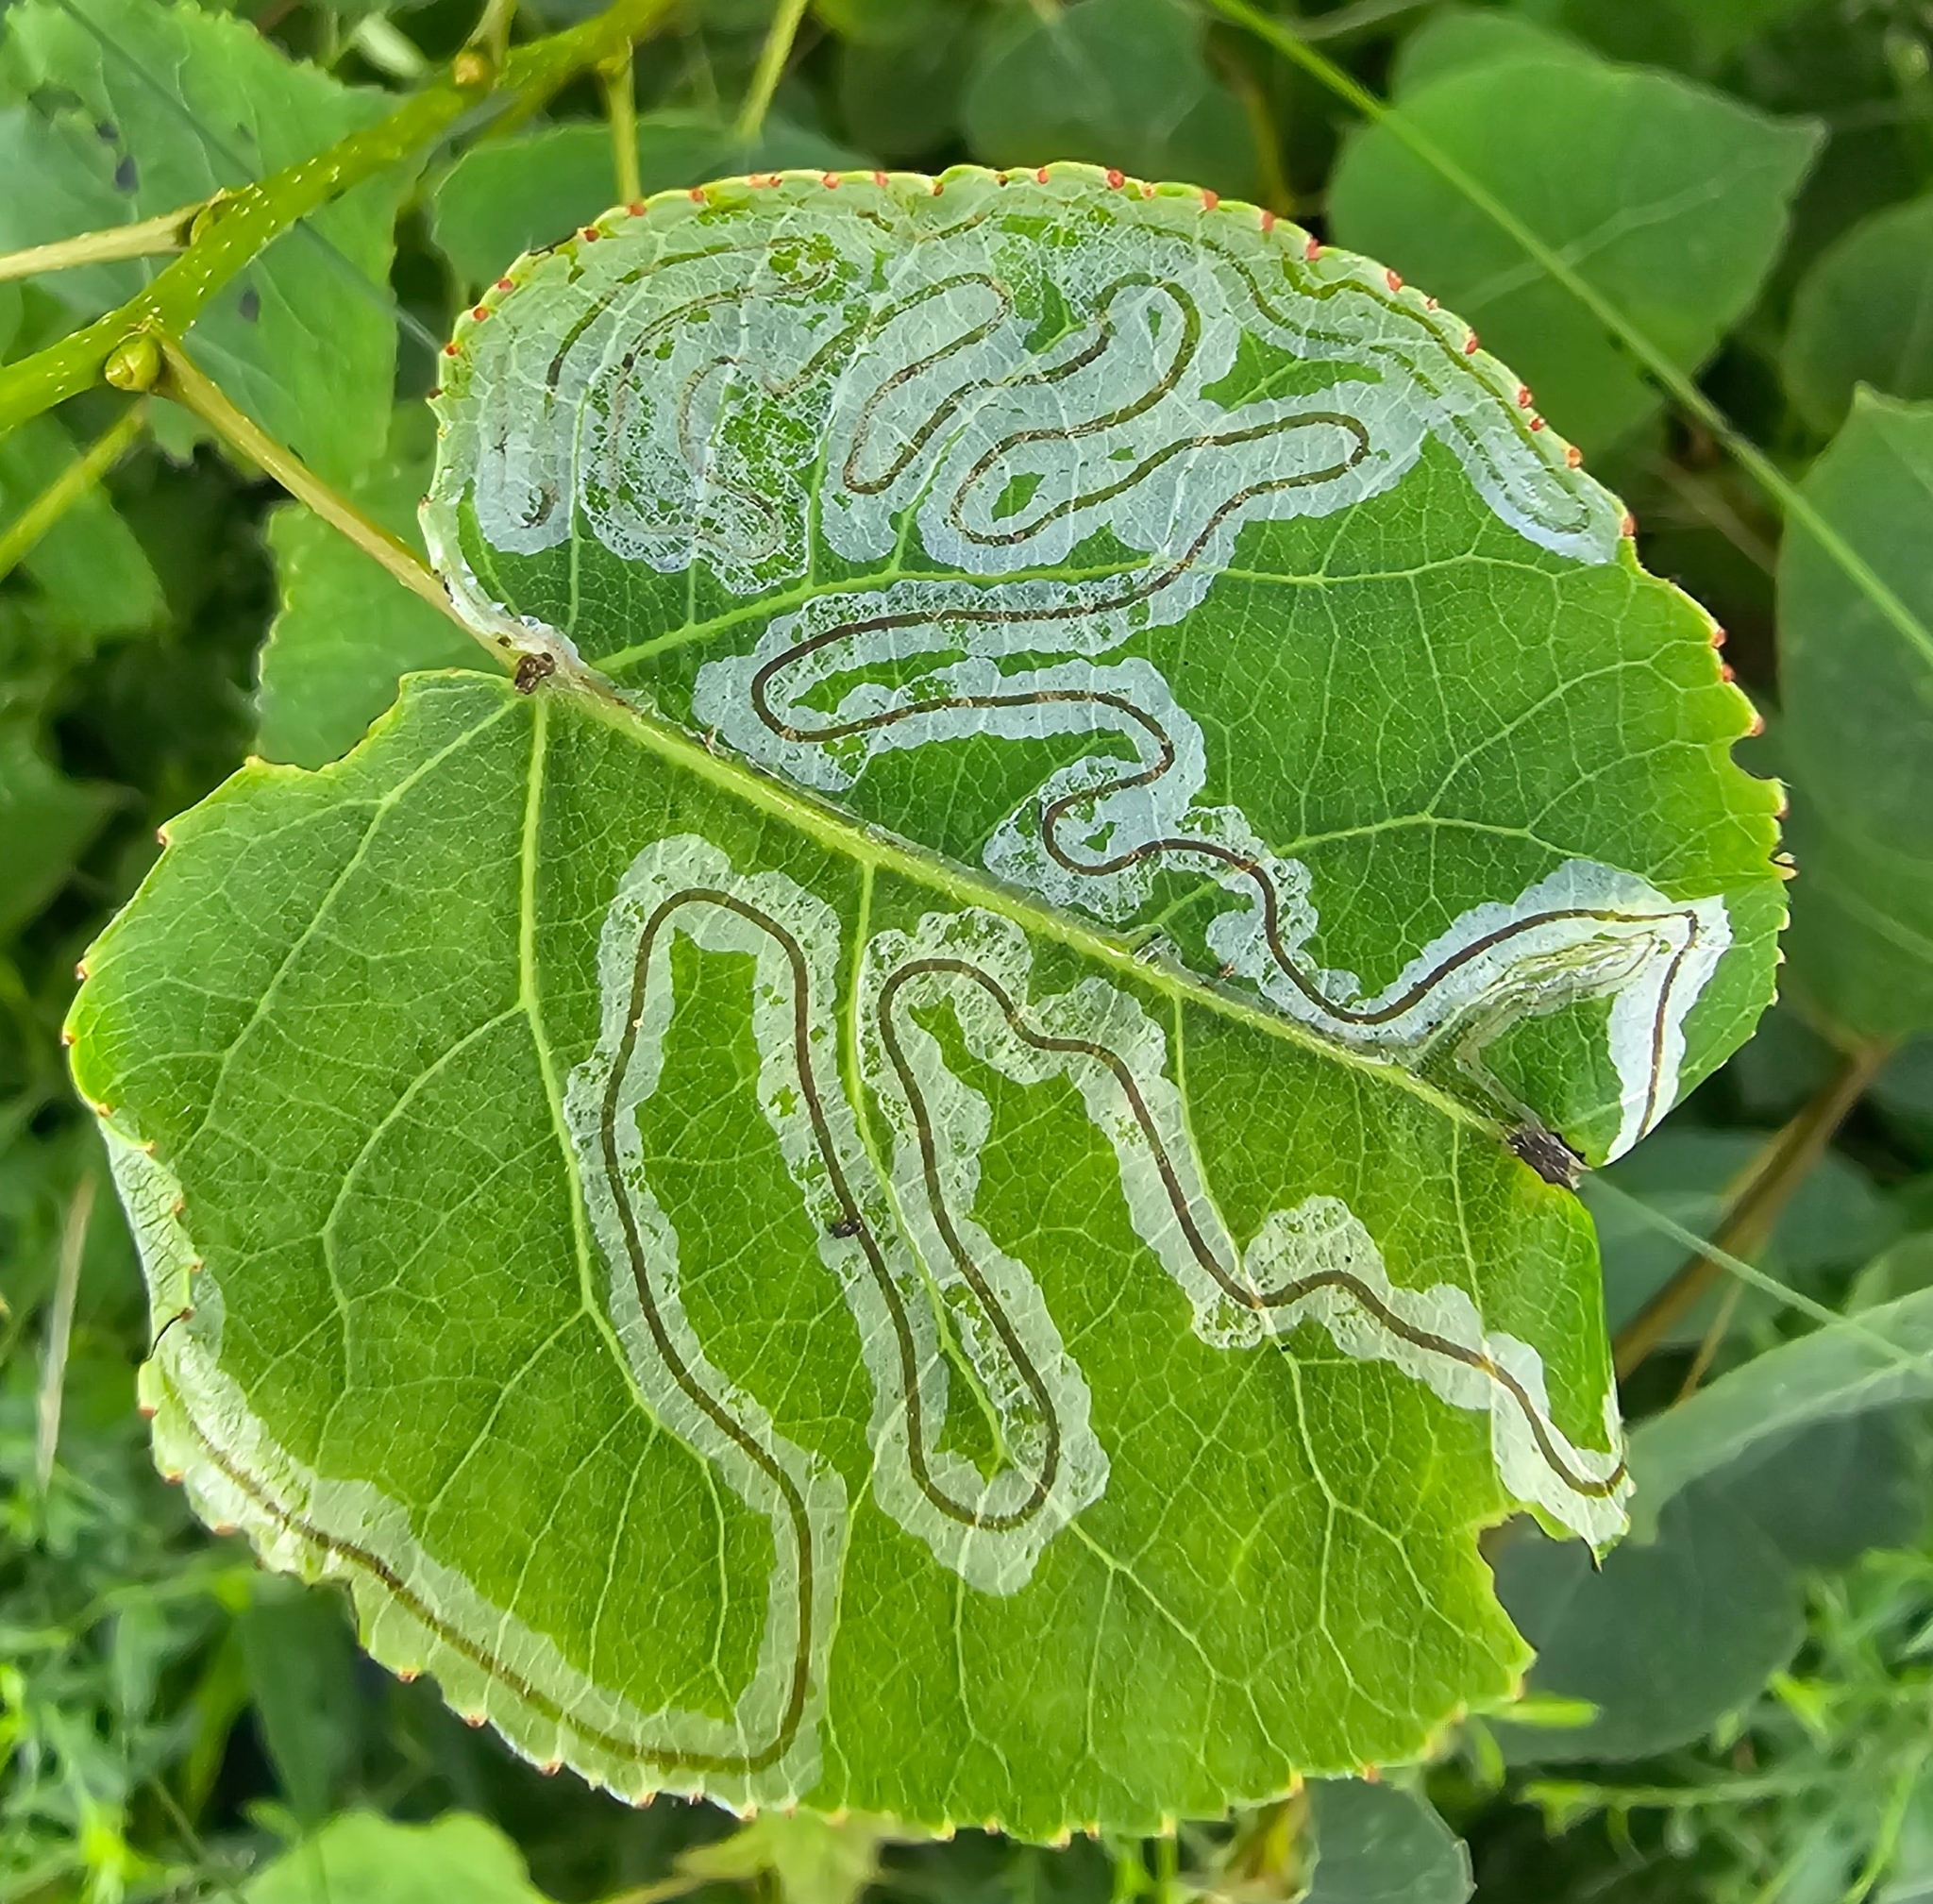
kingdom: Animalia
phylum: Arthropoda
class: Insecta
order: Lepidoptera
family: Gracillariidae
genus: Phyllocnistis
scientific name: Phyllocnistis populiella
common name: Aspen serpentine leafminer moth
